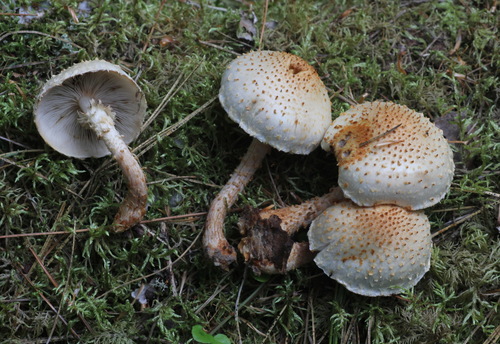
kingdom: Fungi
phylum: Basidiomycota
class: Agaricomycetes
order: Agaricales
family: Strophariaceae
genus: Pholiota
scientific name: Pholiota
